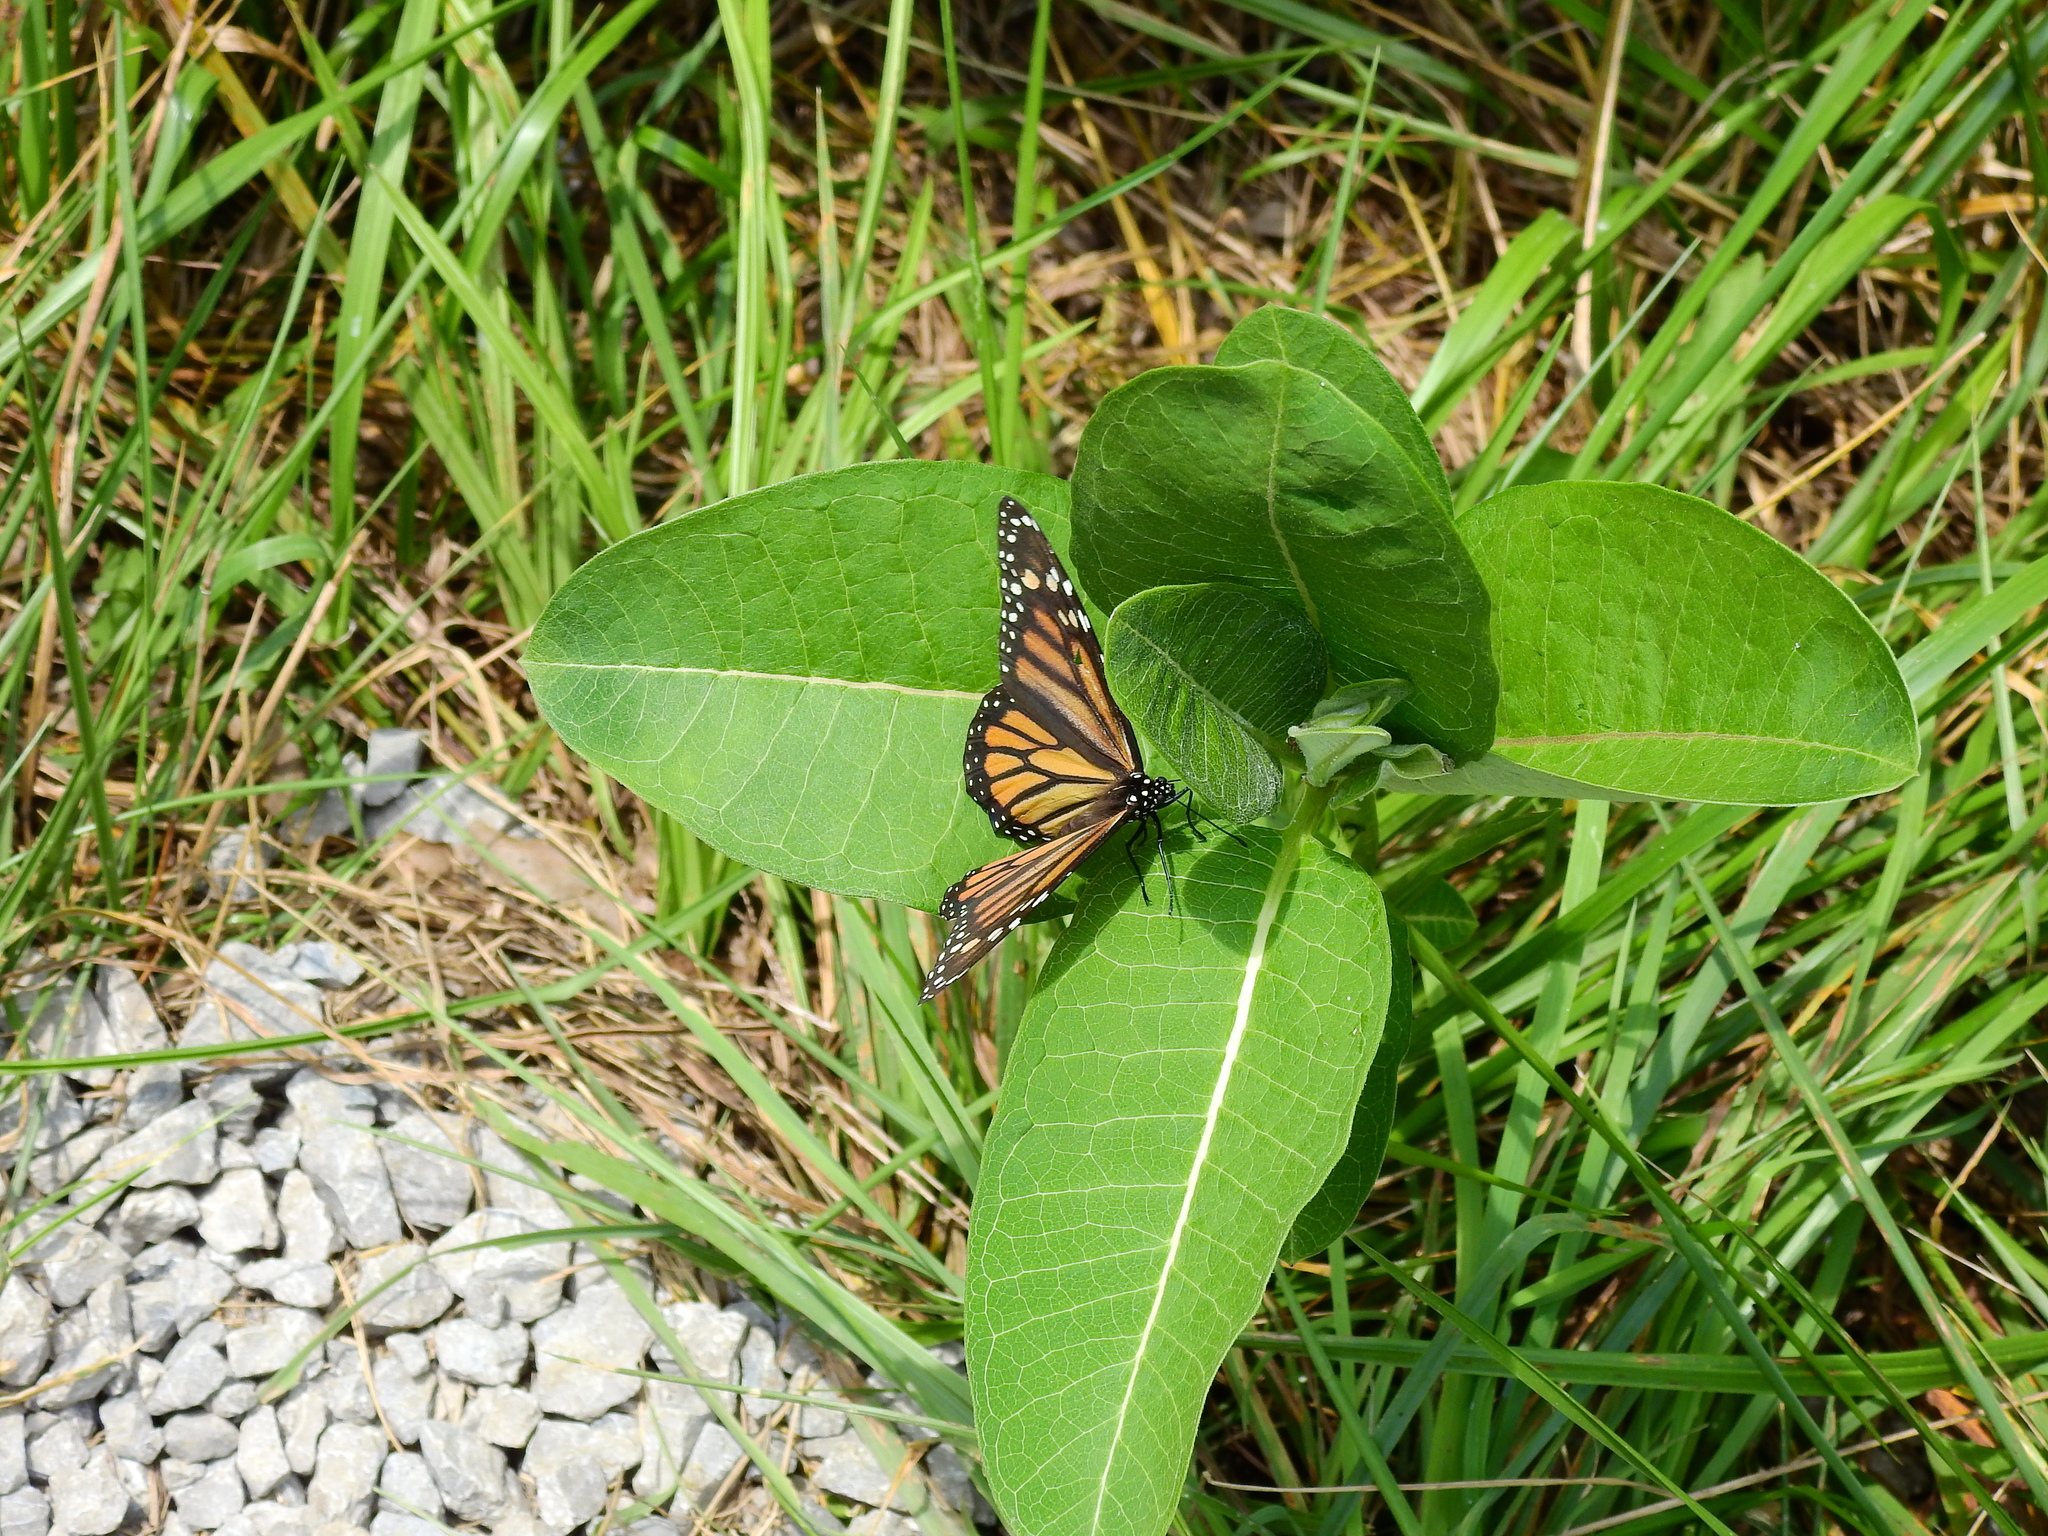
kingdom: Animalia
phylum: Arthropoda
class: Insecta
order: Lepidoptera
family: Nymphalidae
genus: Danaus
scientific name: Danaus plexippus
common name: Monarch
